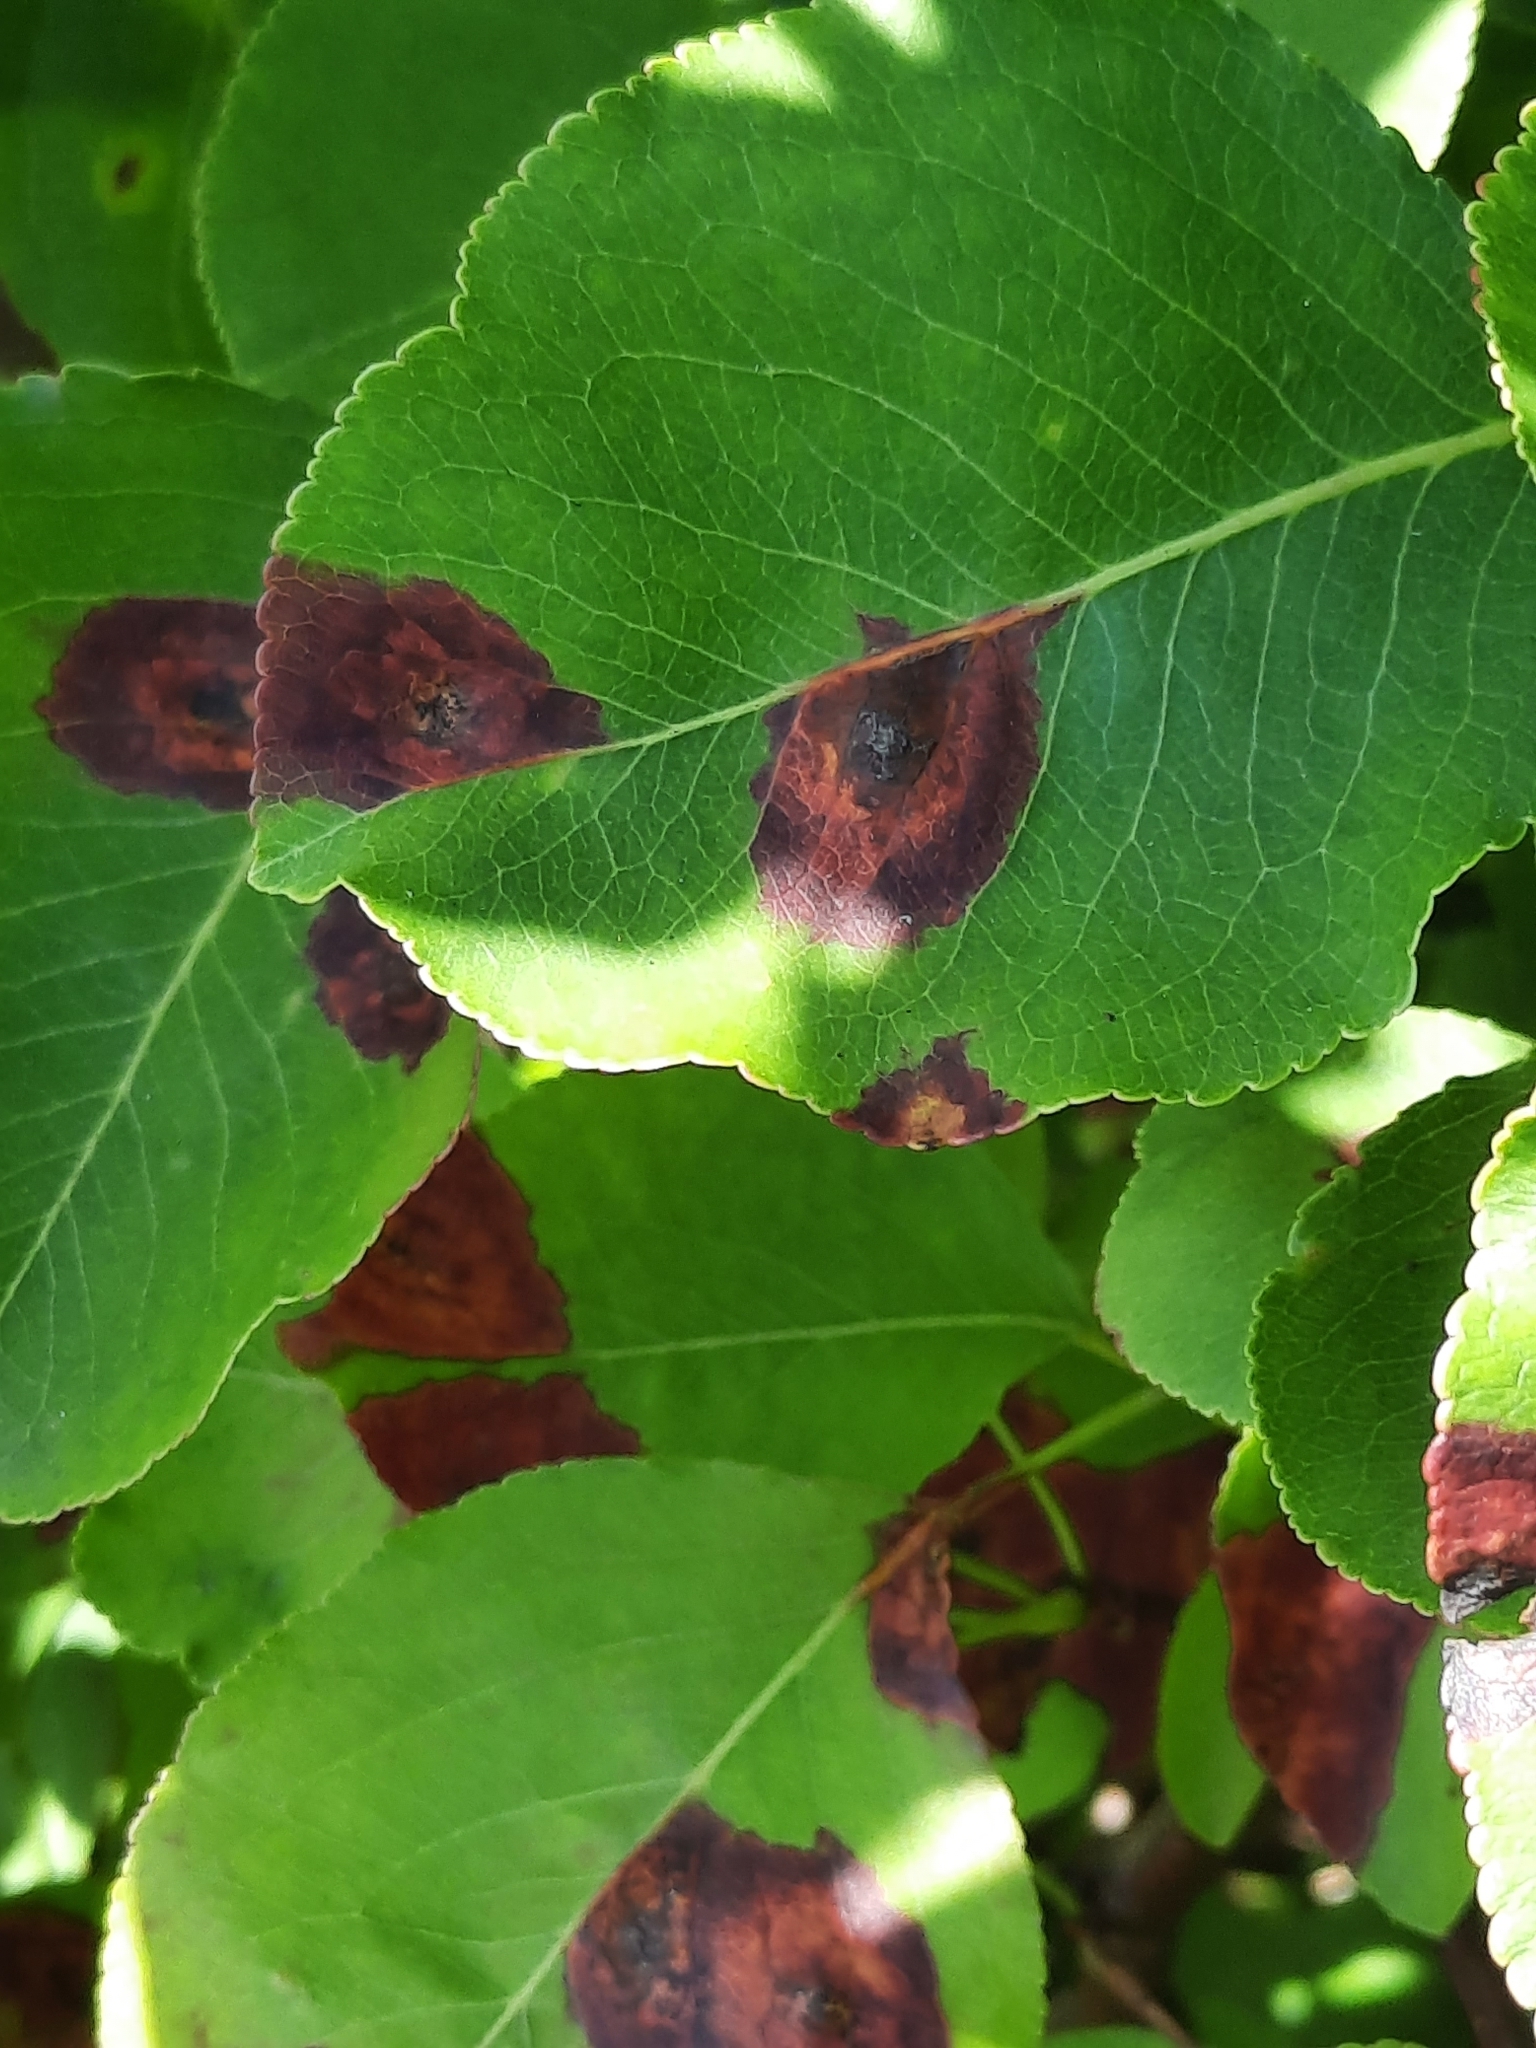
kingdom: Fungi
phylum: Basidiomycota
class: Pucciniomycetes
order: Pucciniales
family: Gymnosporangiaceae
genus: Gymnosporangium
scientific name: Gymnosporangium sabinae
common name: Pear trellis rust fungus
